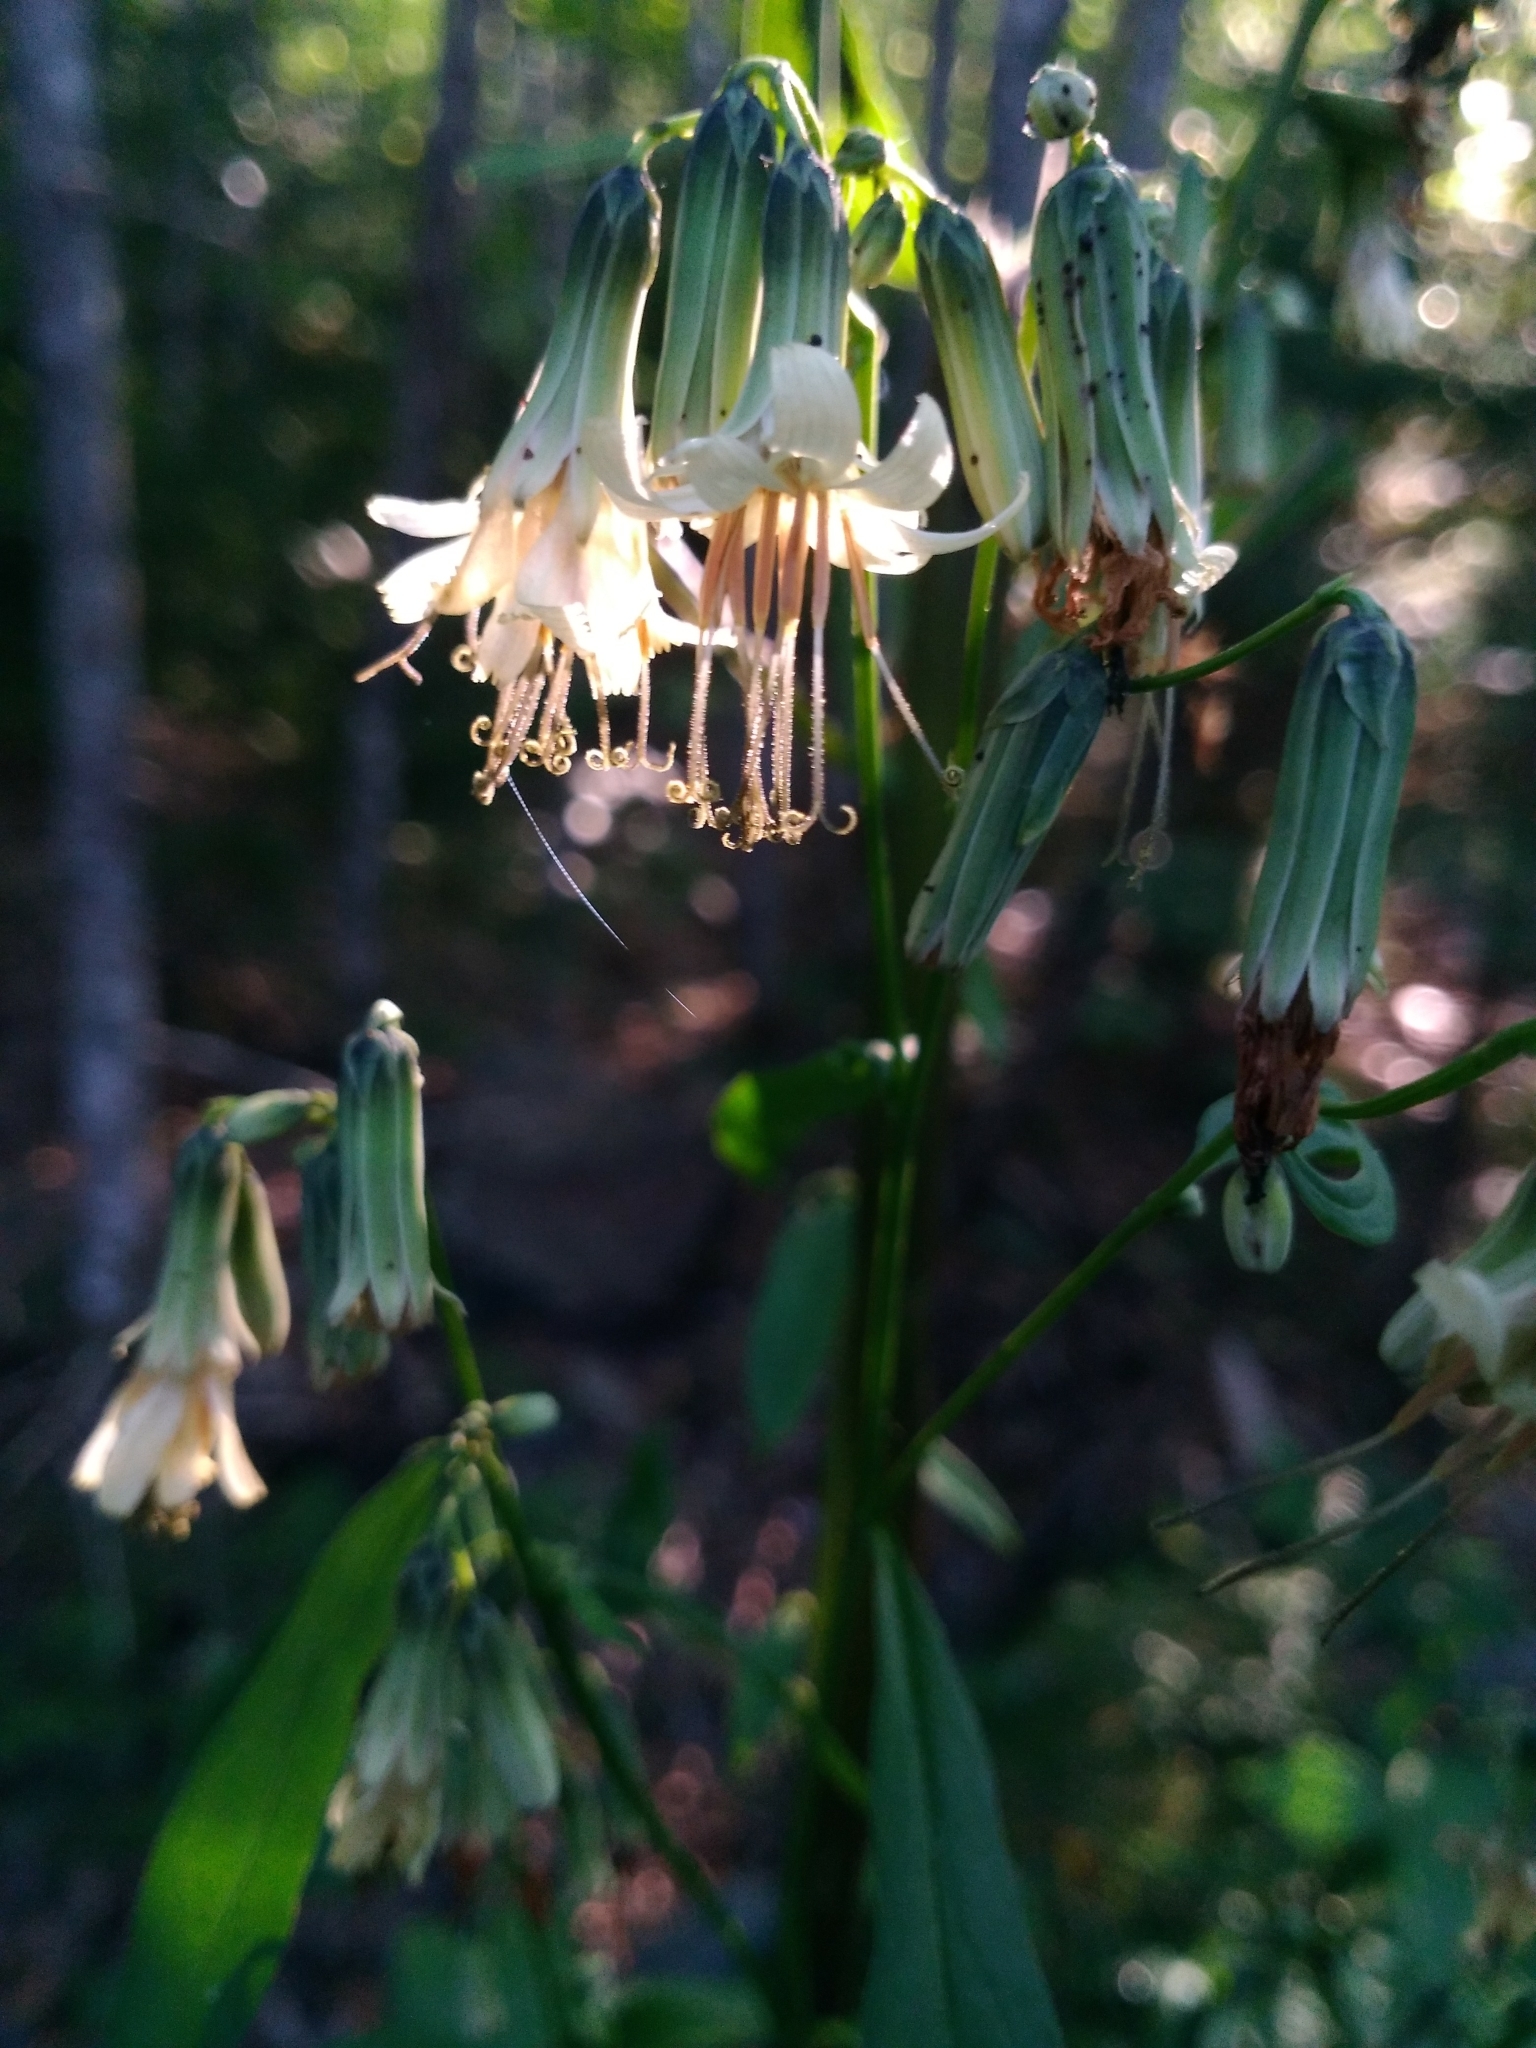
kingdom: Plantae
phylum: Tracheophyta
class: Magnoliopsida
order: Asterales
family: Asteraceae
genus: Nabalus
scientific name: Nabalus trifoliolatus
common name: Gall-of-the-earth
